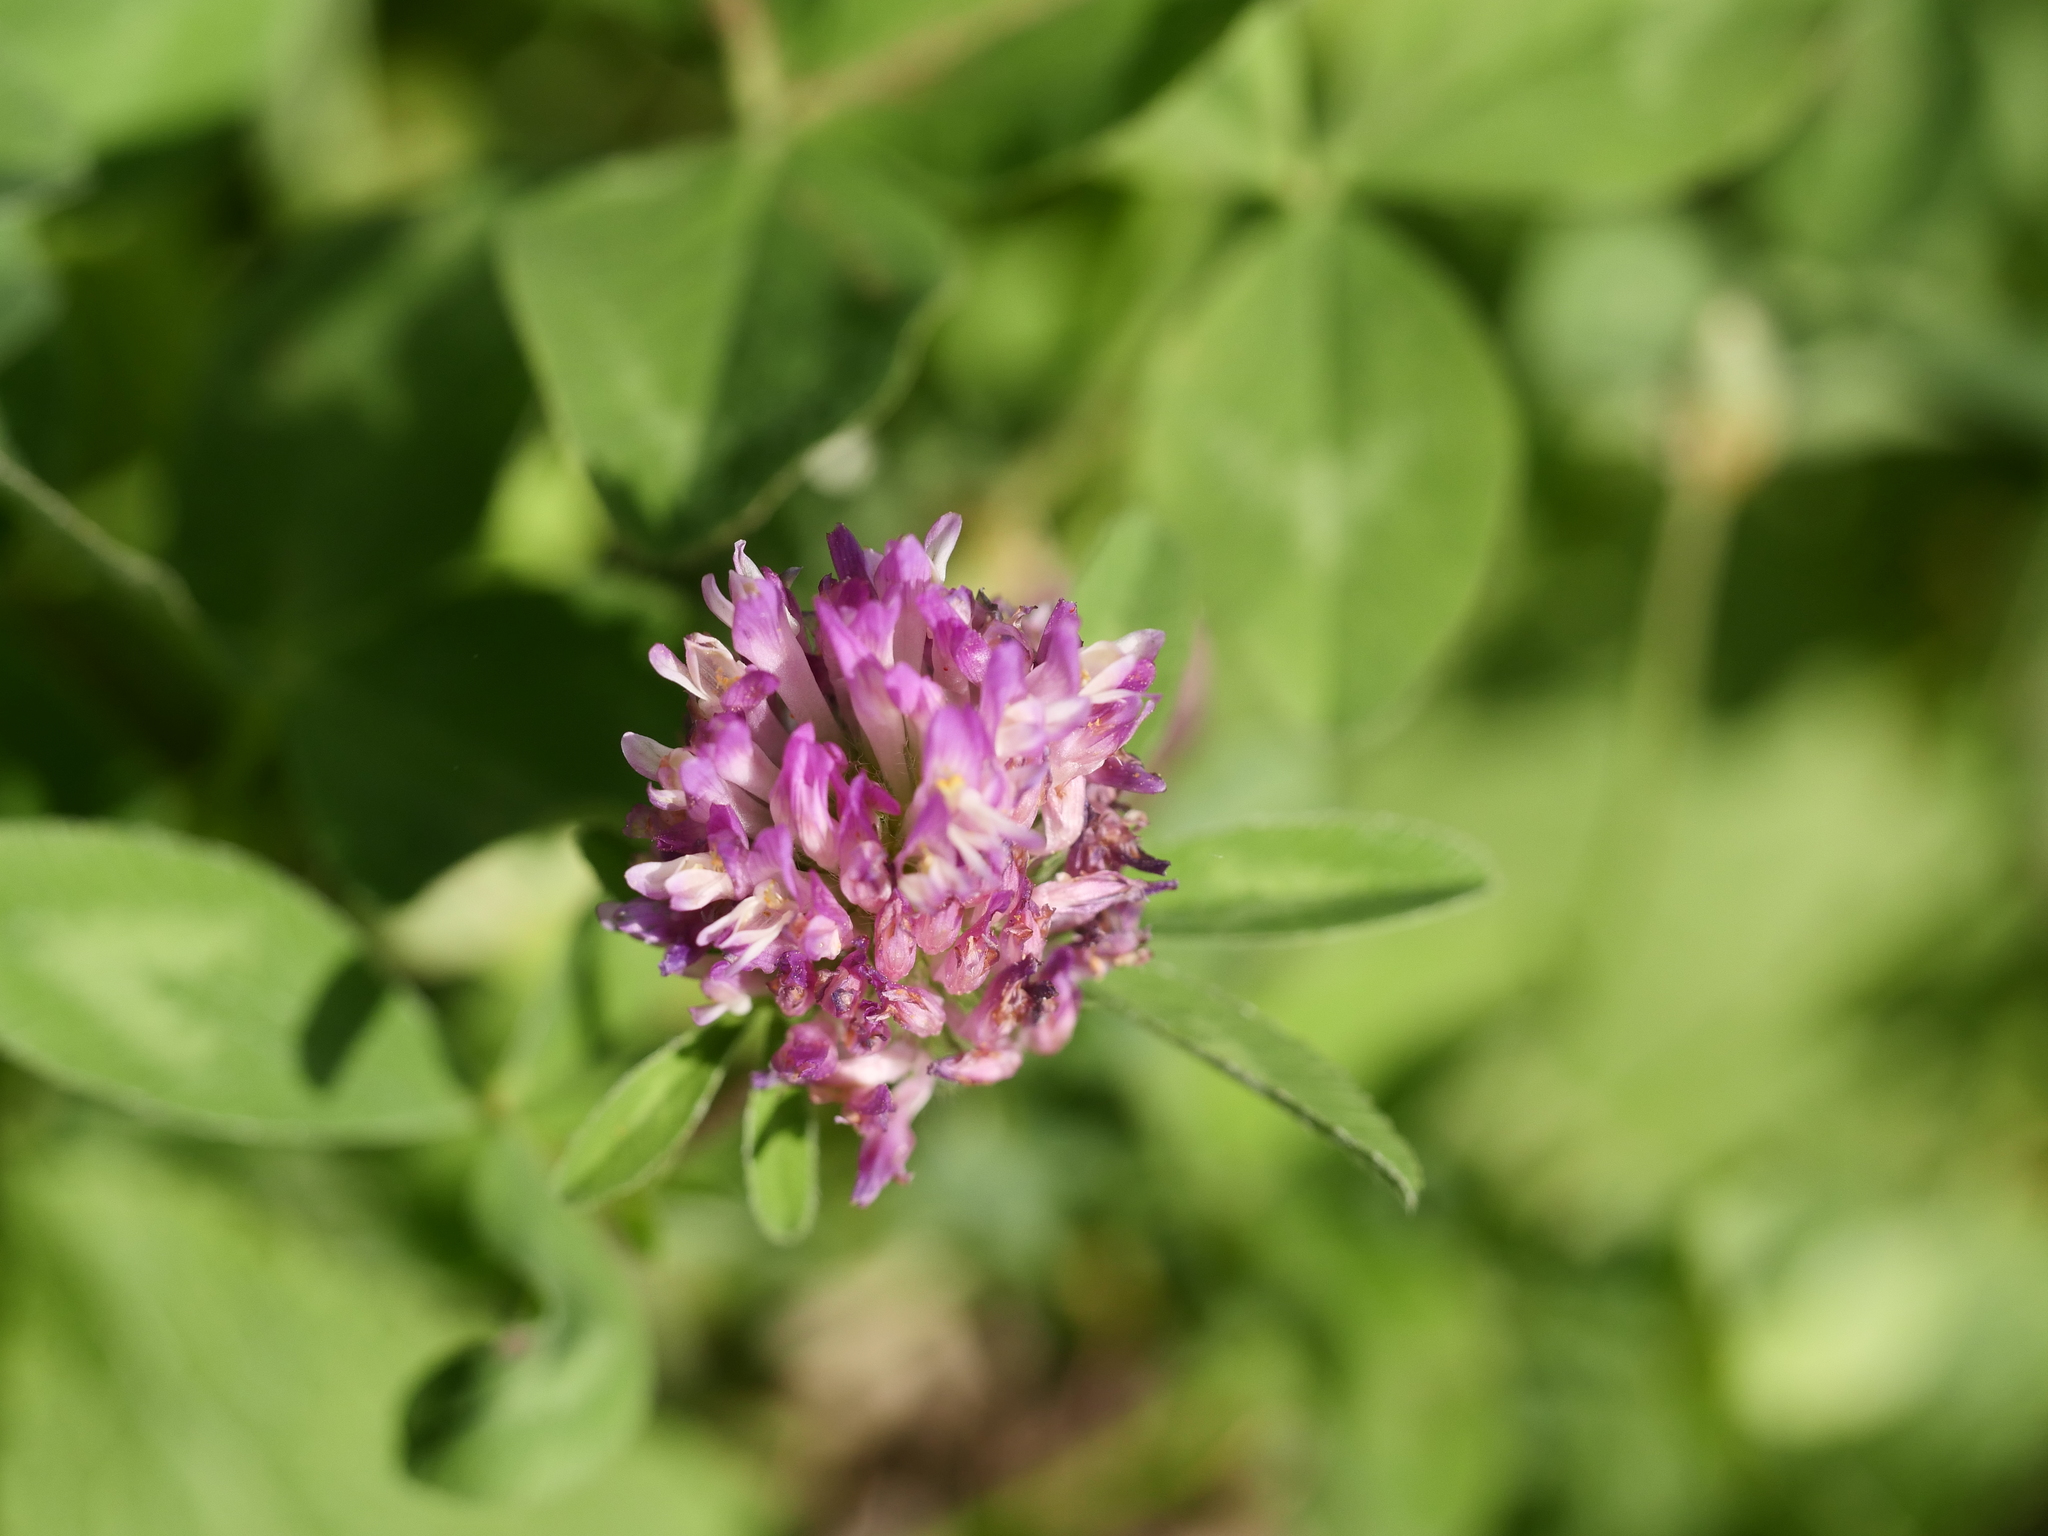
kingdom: Plantae
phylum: Tracheophyta
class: Magnoliopsida
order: Fabales
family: Fabaceae
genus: Trifolium
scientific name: Trifolium pratense
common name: Red clover
